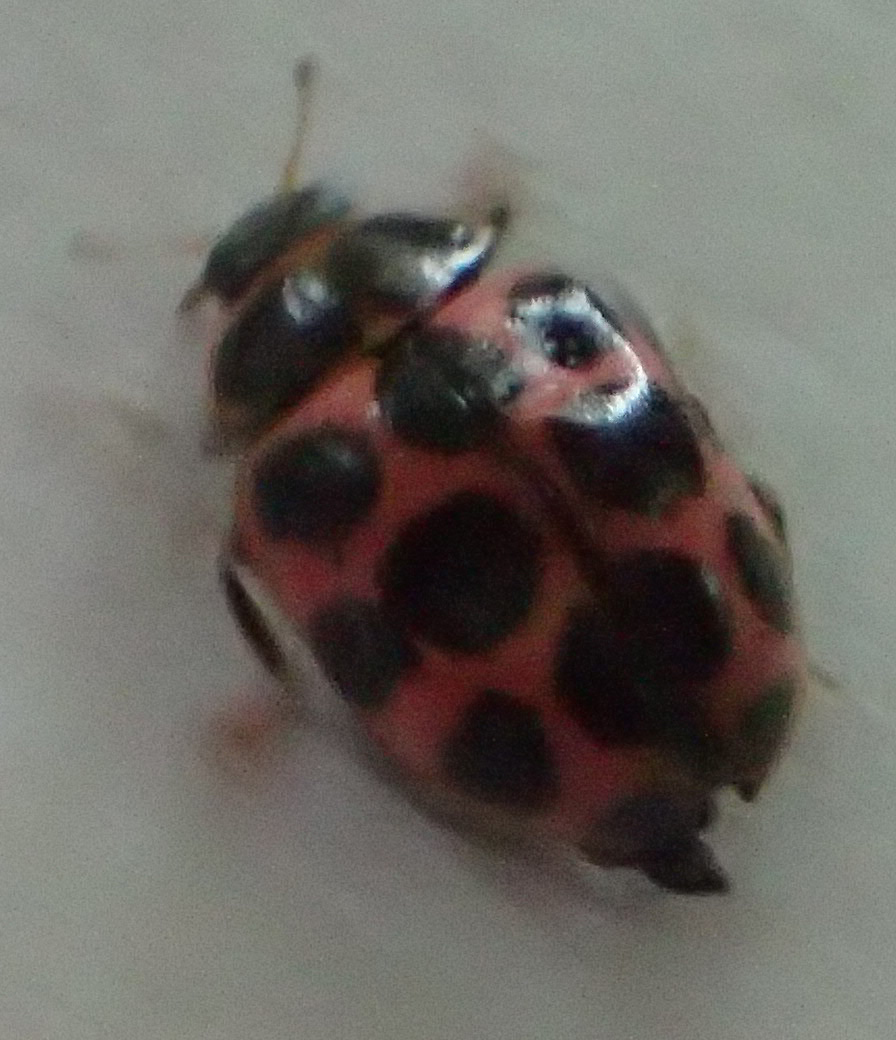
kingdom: Animalia
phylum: Arthropoda
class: Insecta
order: Coleoptera
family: Coccinellidae
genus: Calvia
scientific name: Calvia quatuordecimguttata
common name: Cream-spot ladybird
